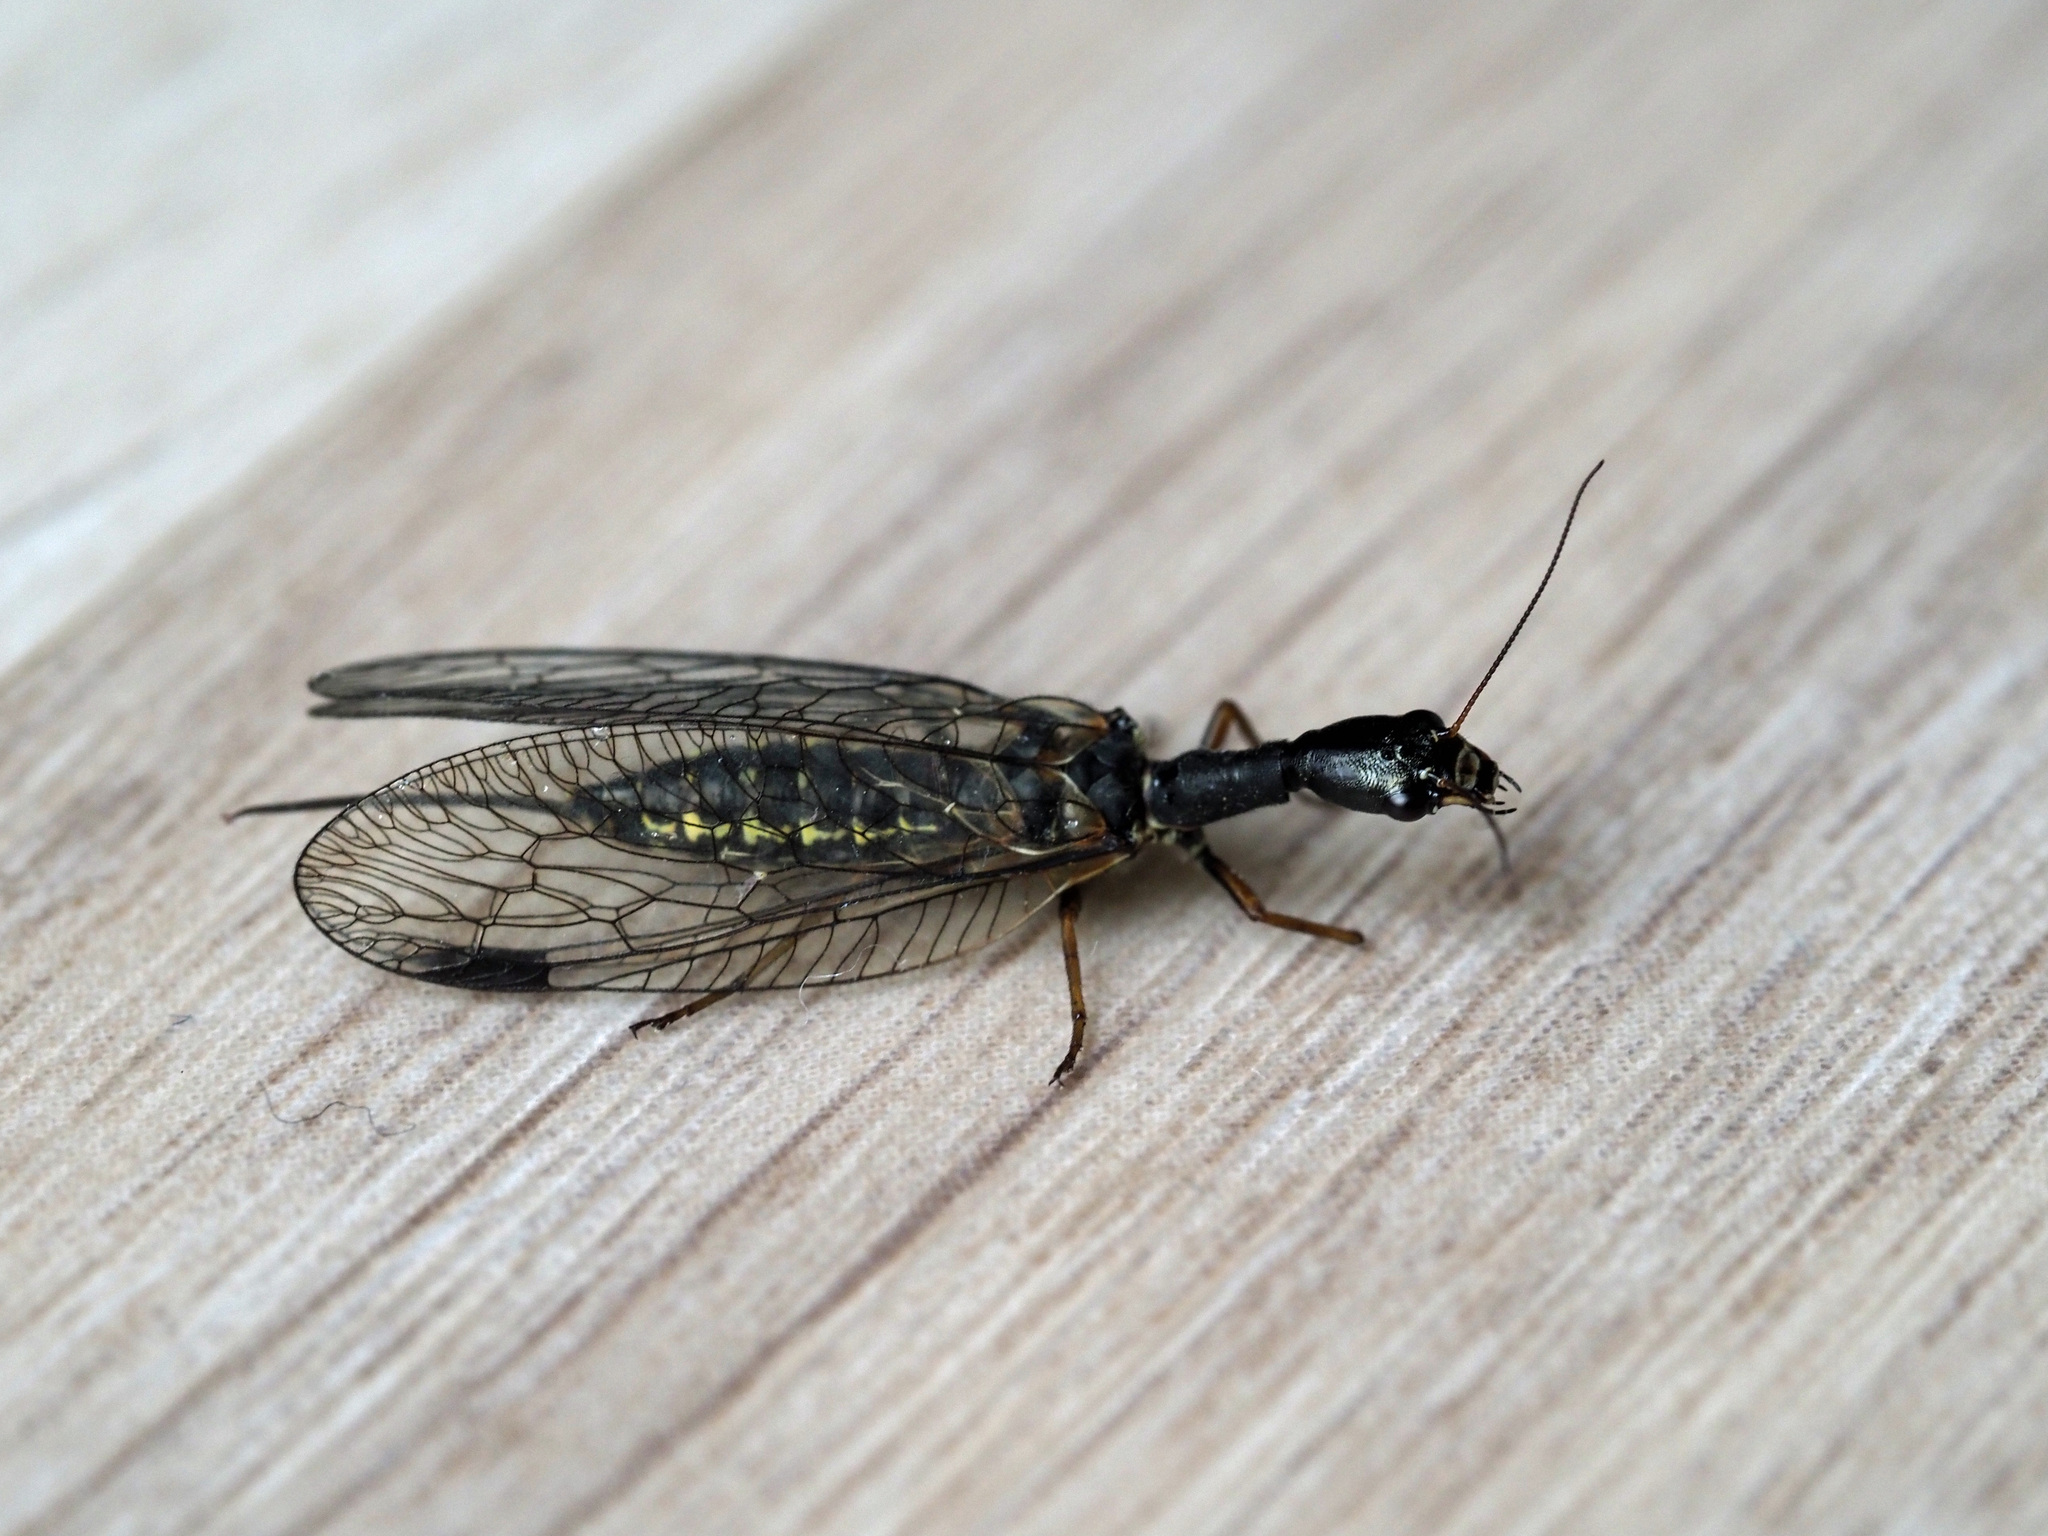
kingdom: Animalia
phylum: Arthropoda
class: Insecta
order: Raphidioptera
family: Raphidiidae
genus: Phaeostigma
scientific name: Phaeostigma notatum
